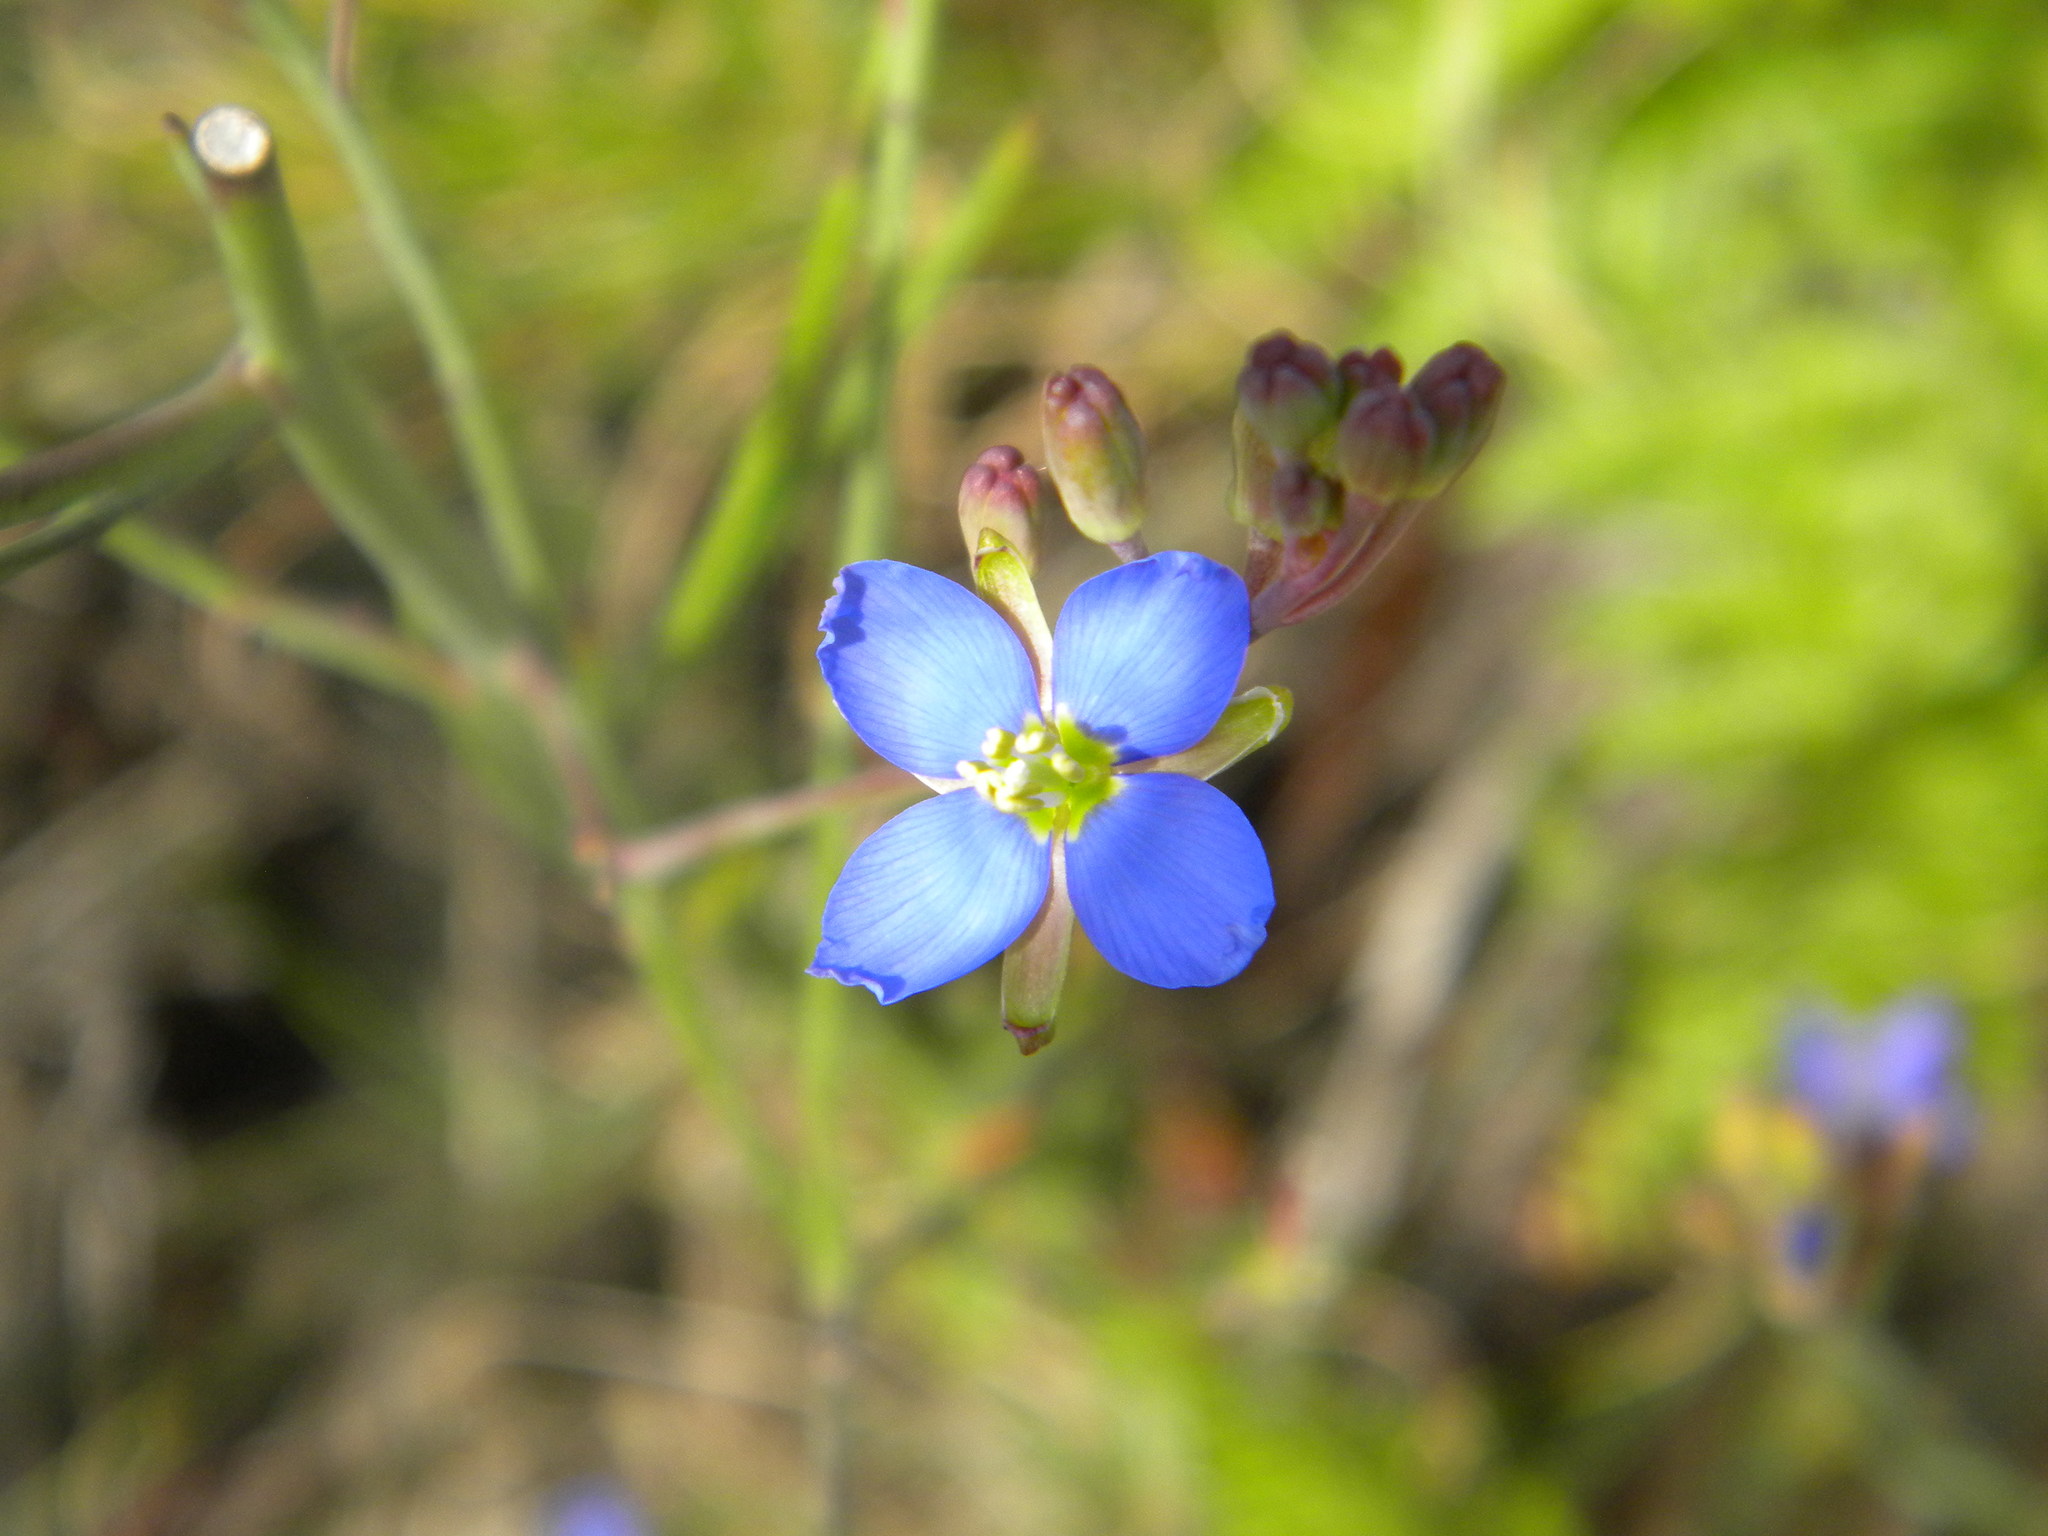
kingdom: Plantae
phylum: Tracheophyta
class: Magnoliopsida
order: Brassicales
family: Brassicaceae
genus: Heliophila
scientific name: Heliophila linearis
